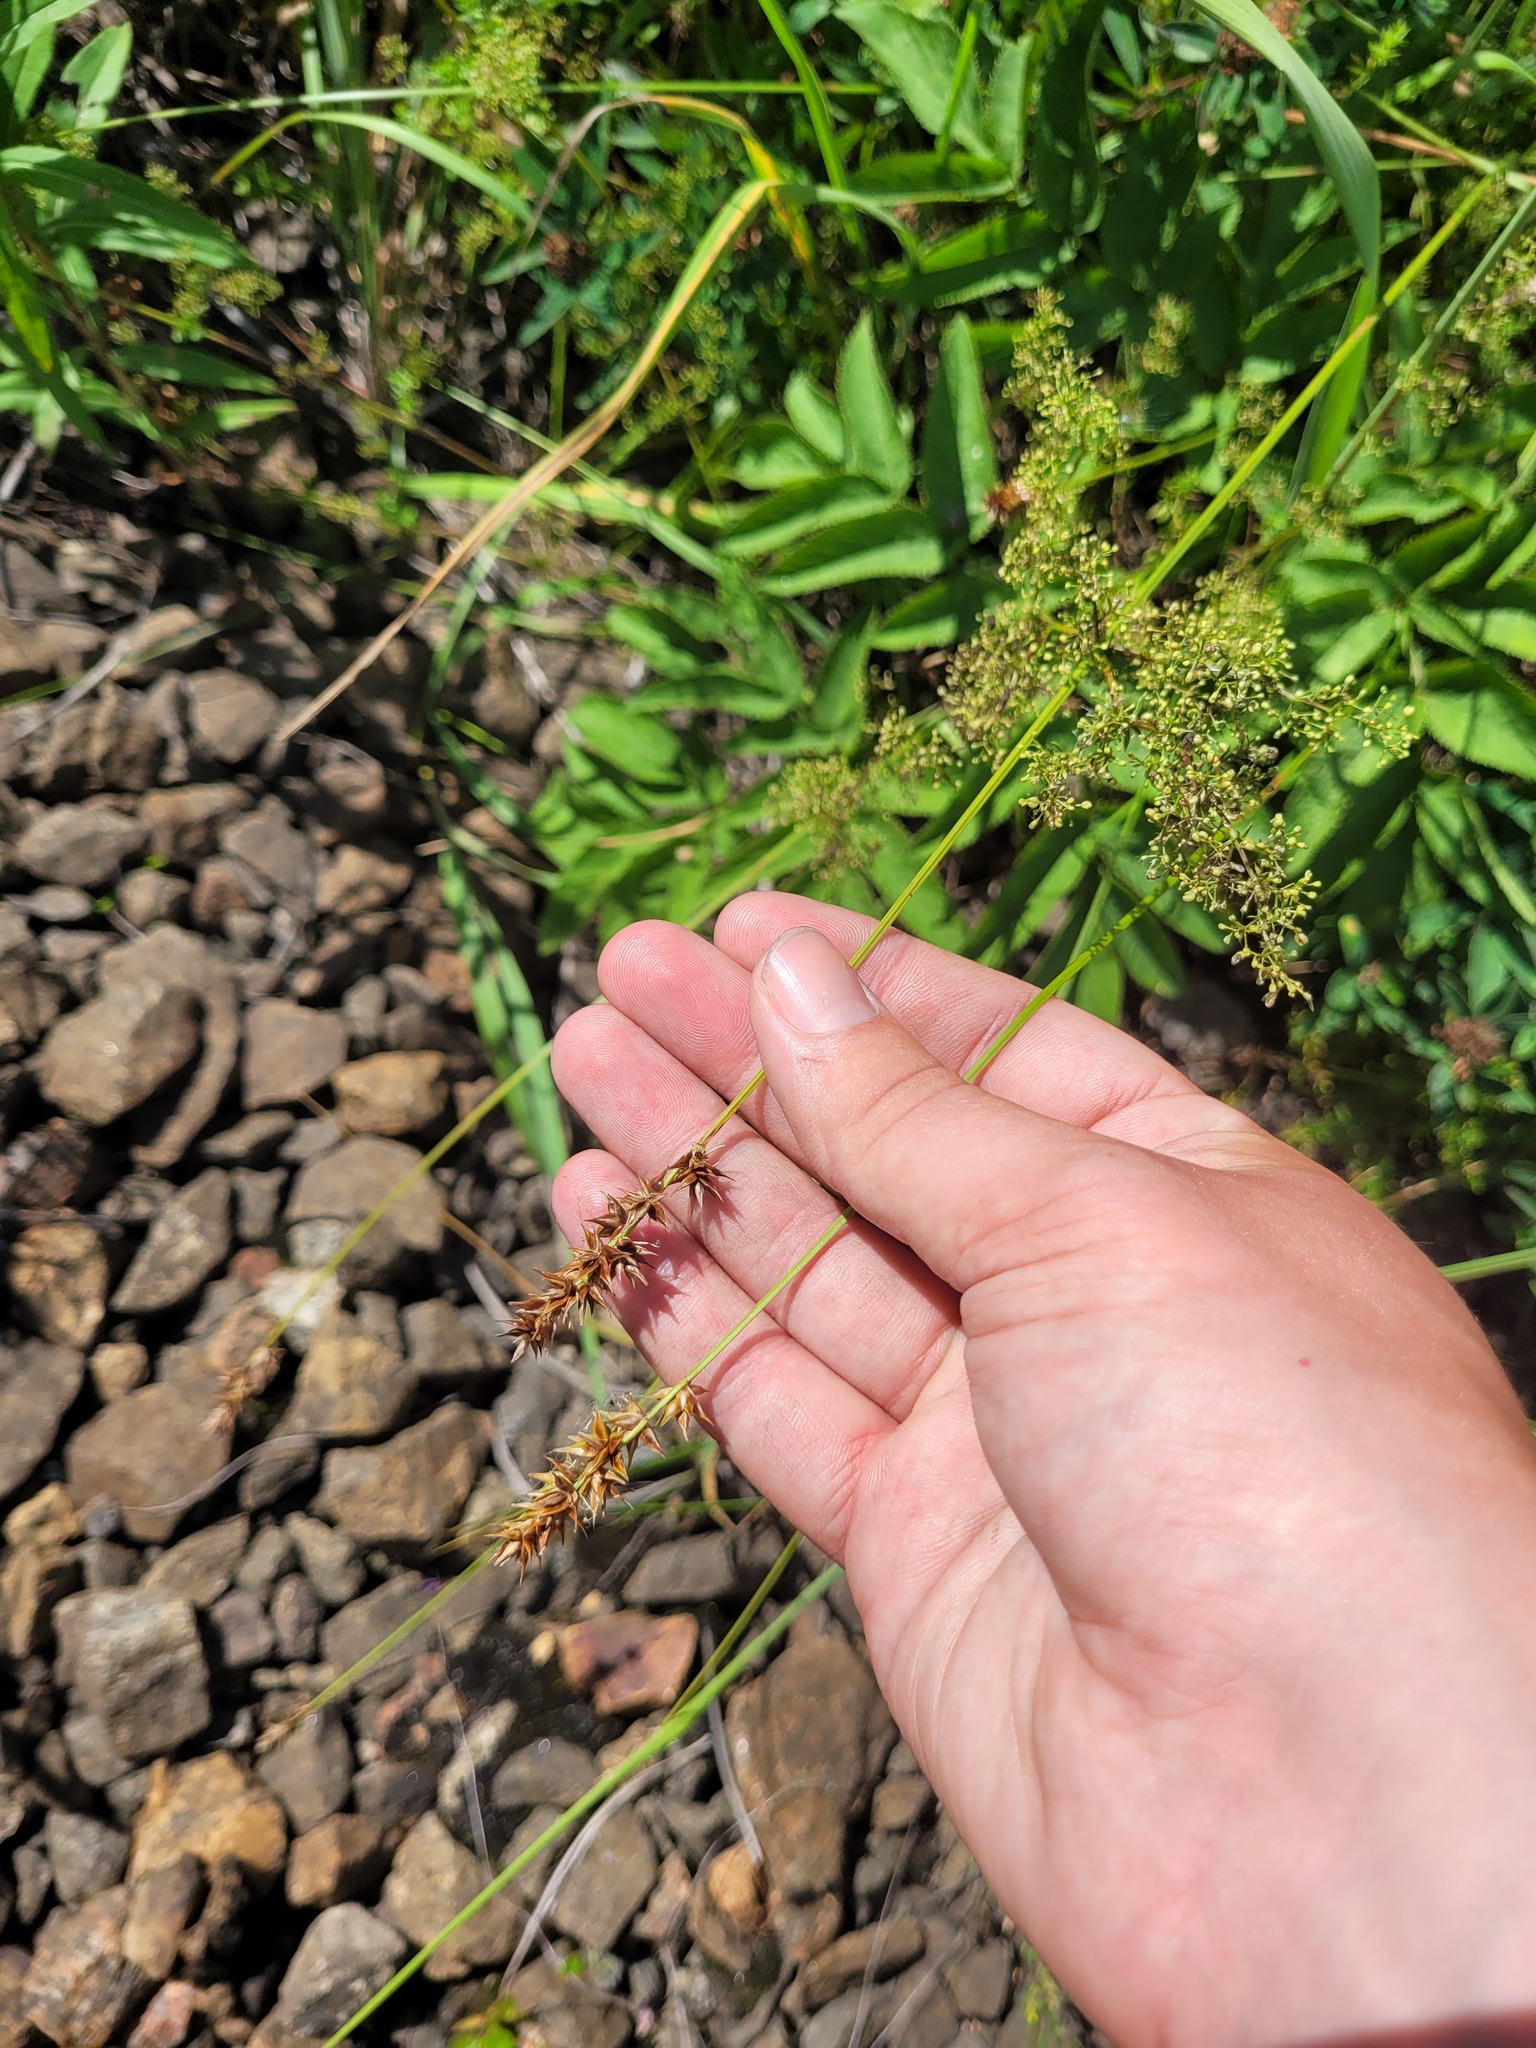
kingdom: Plantae
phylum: Tracheophyta
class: Liliopsida
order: Poales
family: Cyperaceae
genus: Carex
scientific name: Carex spicata
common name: Spiked sedge
